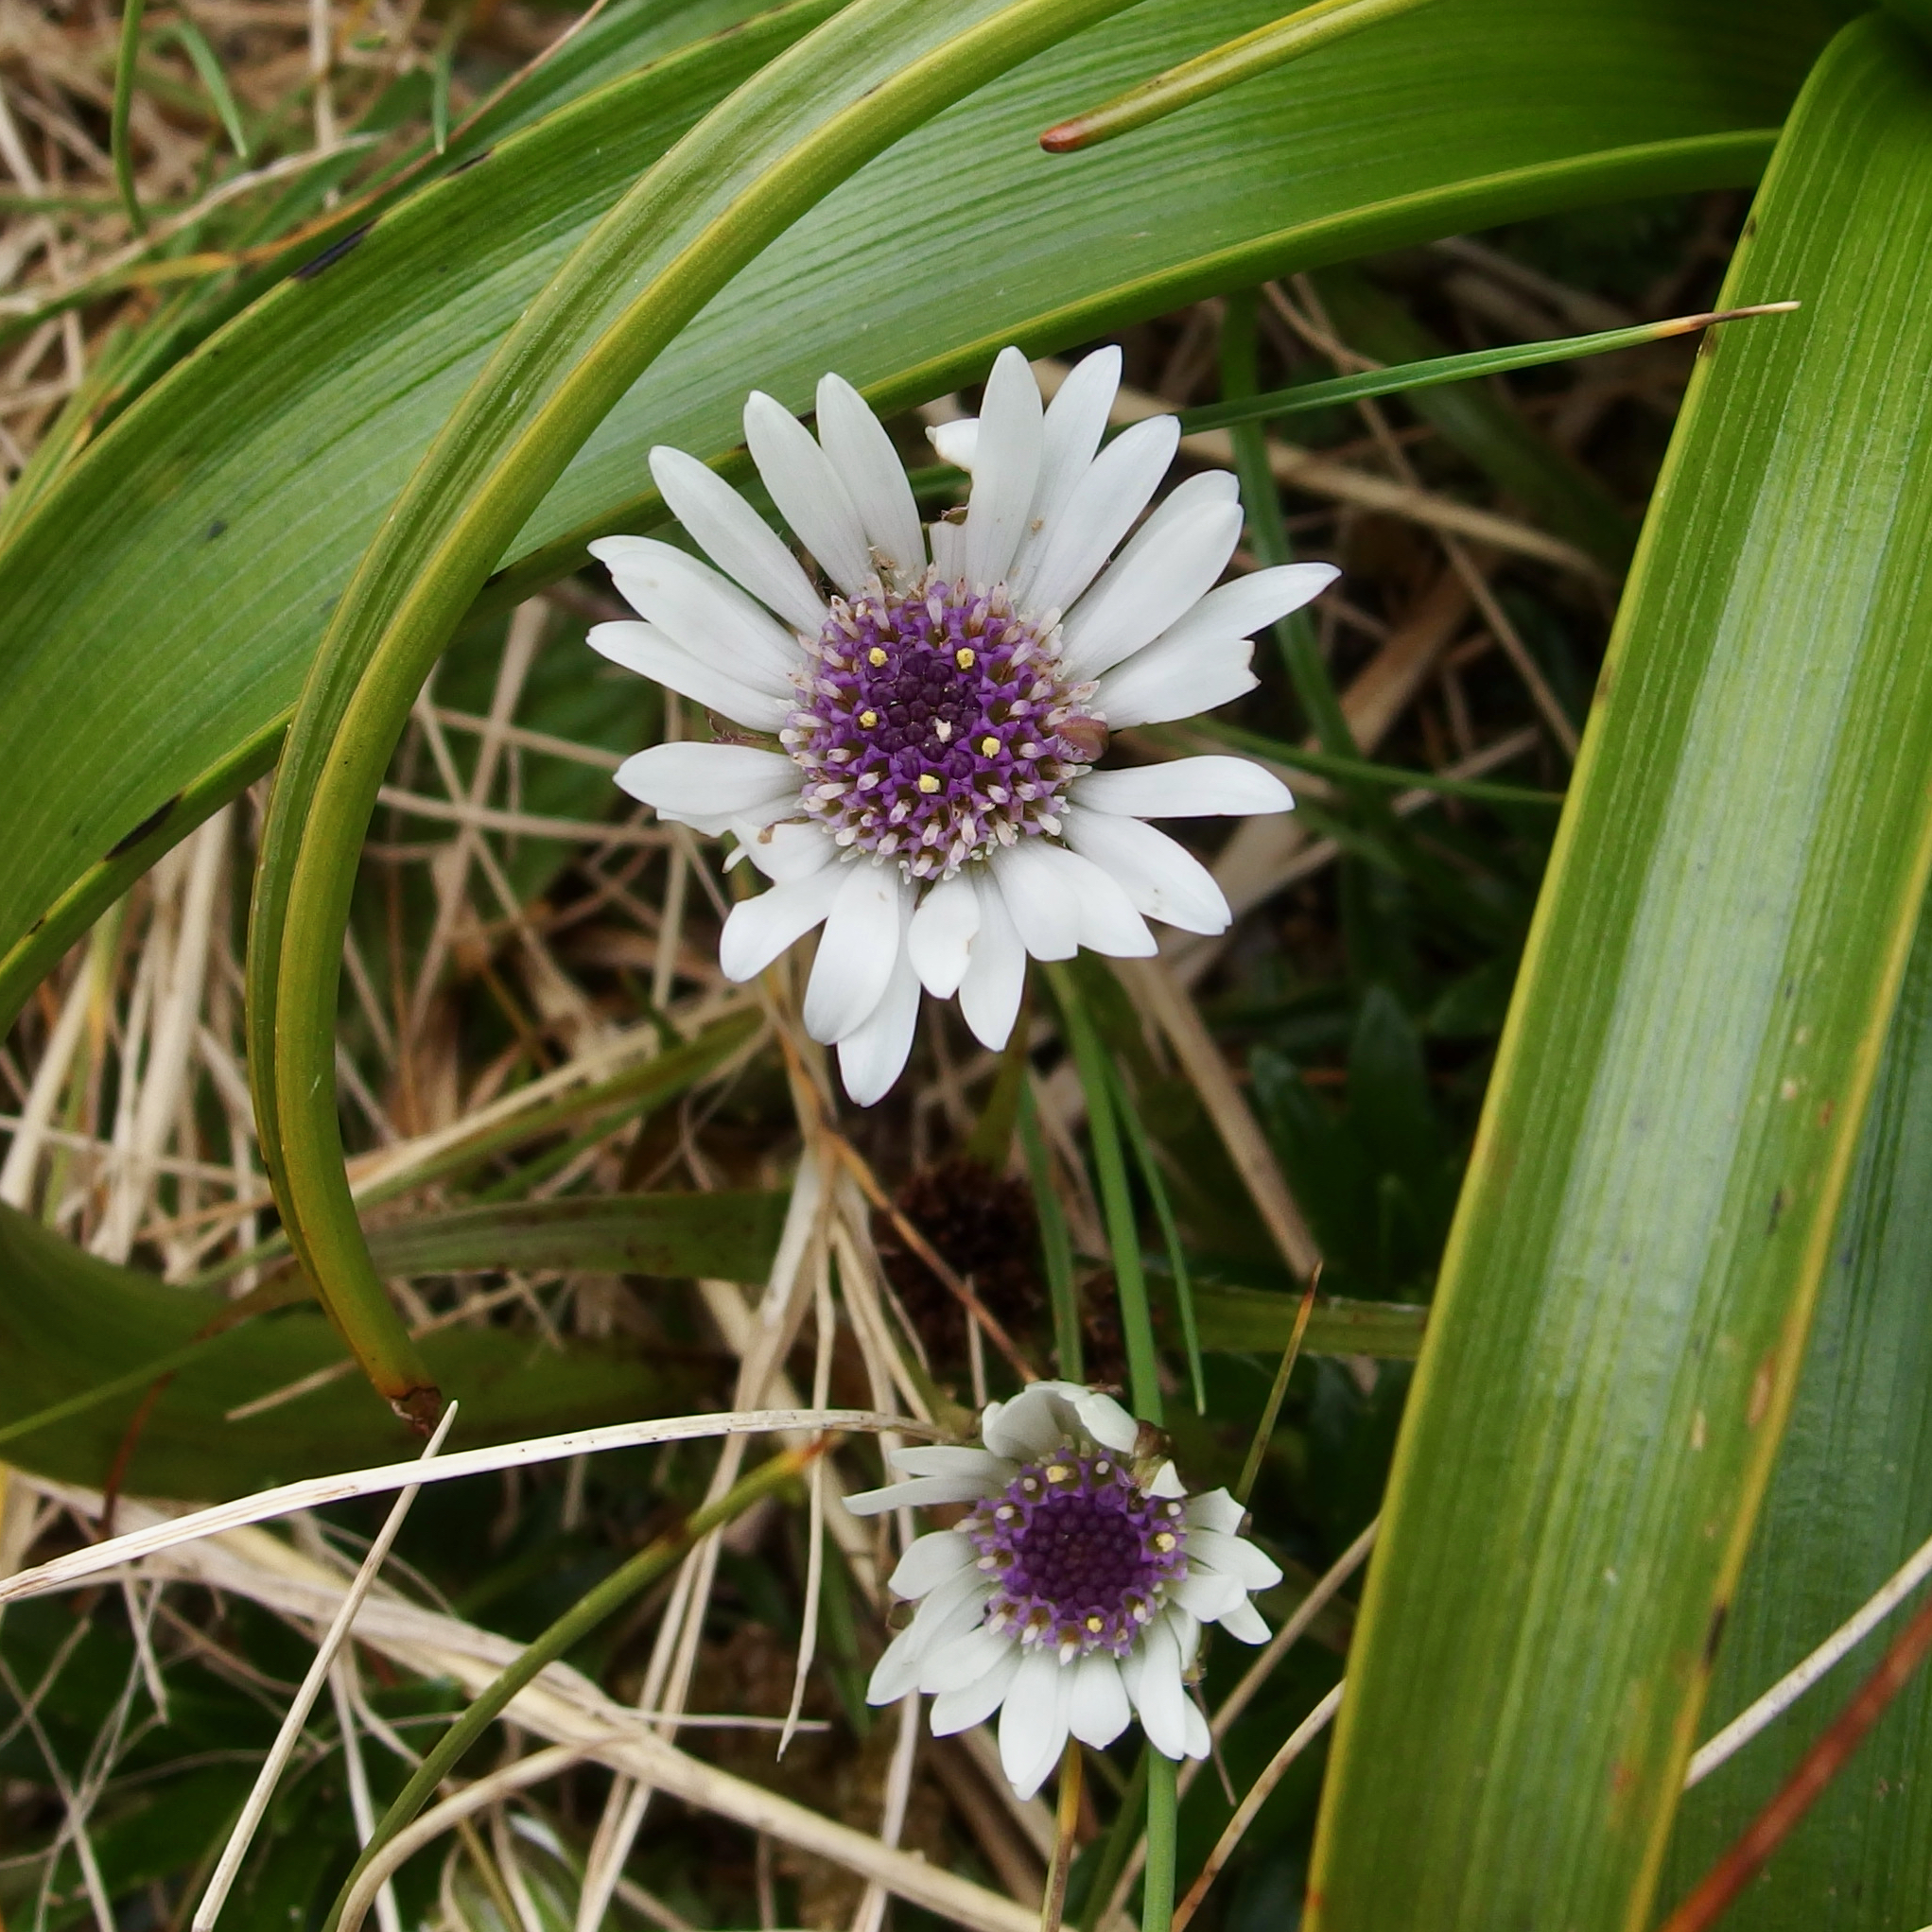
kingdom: Plantae
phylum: Tracheophyta
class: Magnoliopsida
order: Asterales
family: Asteraceae
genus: Damnamenia
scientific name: Damnamenia vernicosa
